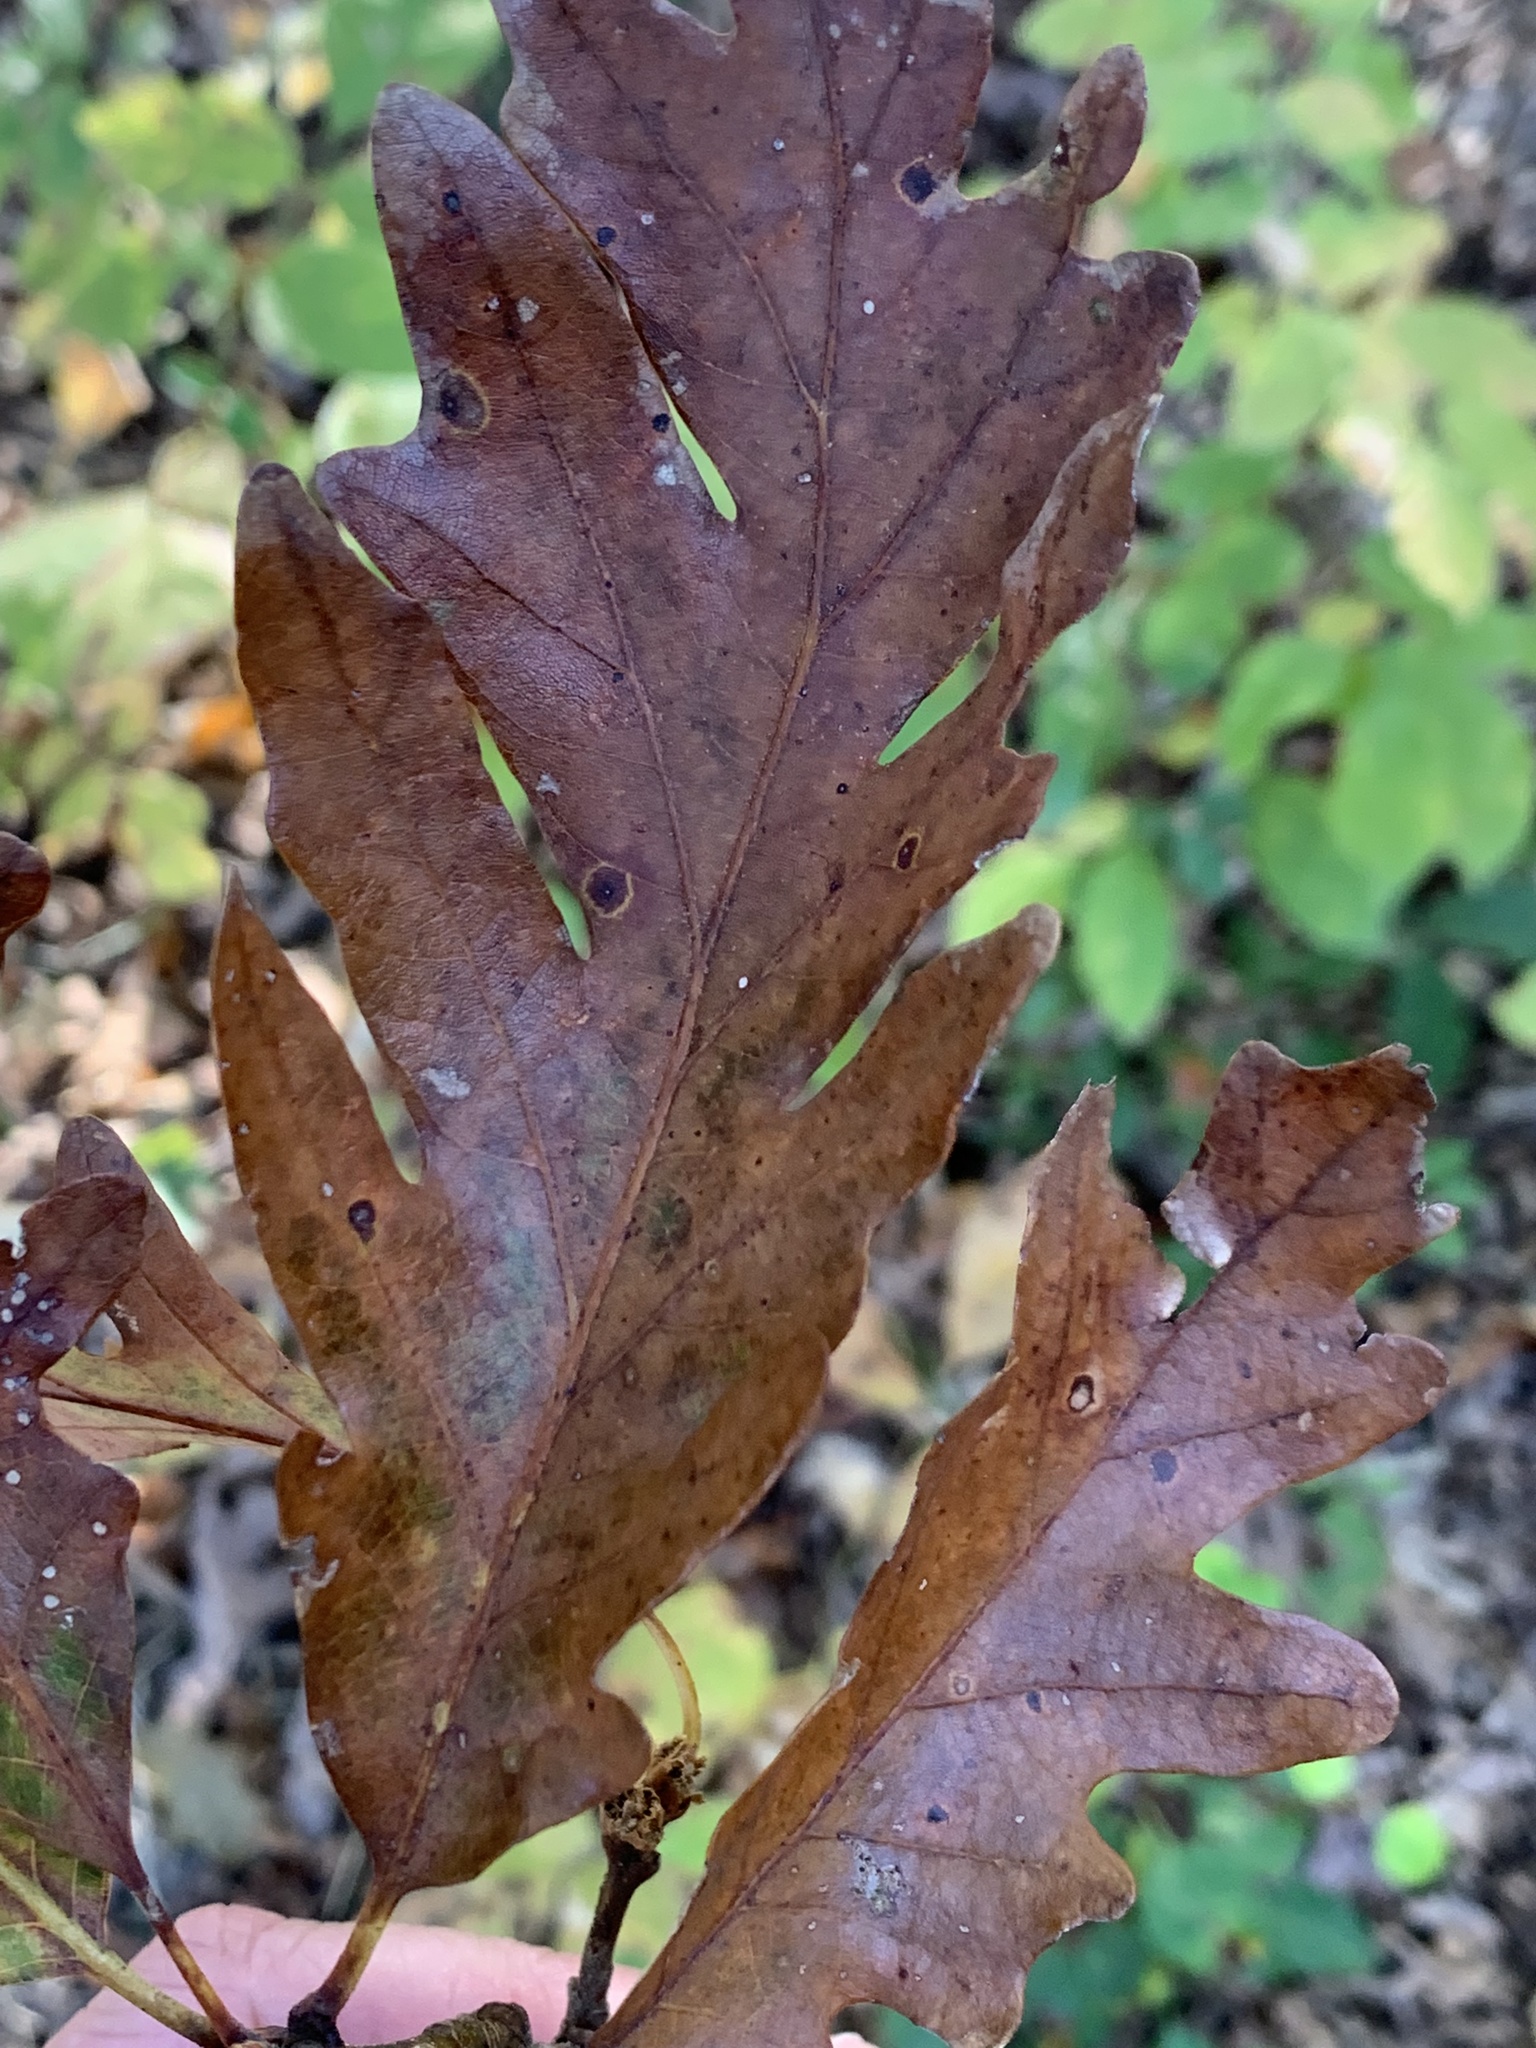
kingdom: Plantae
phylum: Tracheophyta
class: Magnoliopsida
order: Fagales
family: Fagaceae
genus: Quercus
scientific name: Quercus beadlei
